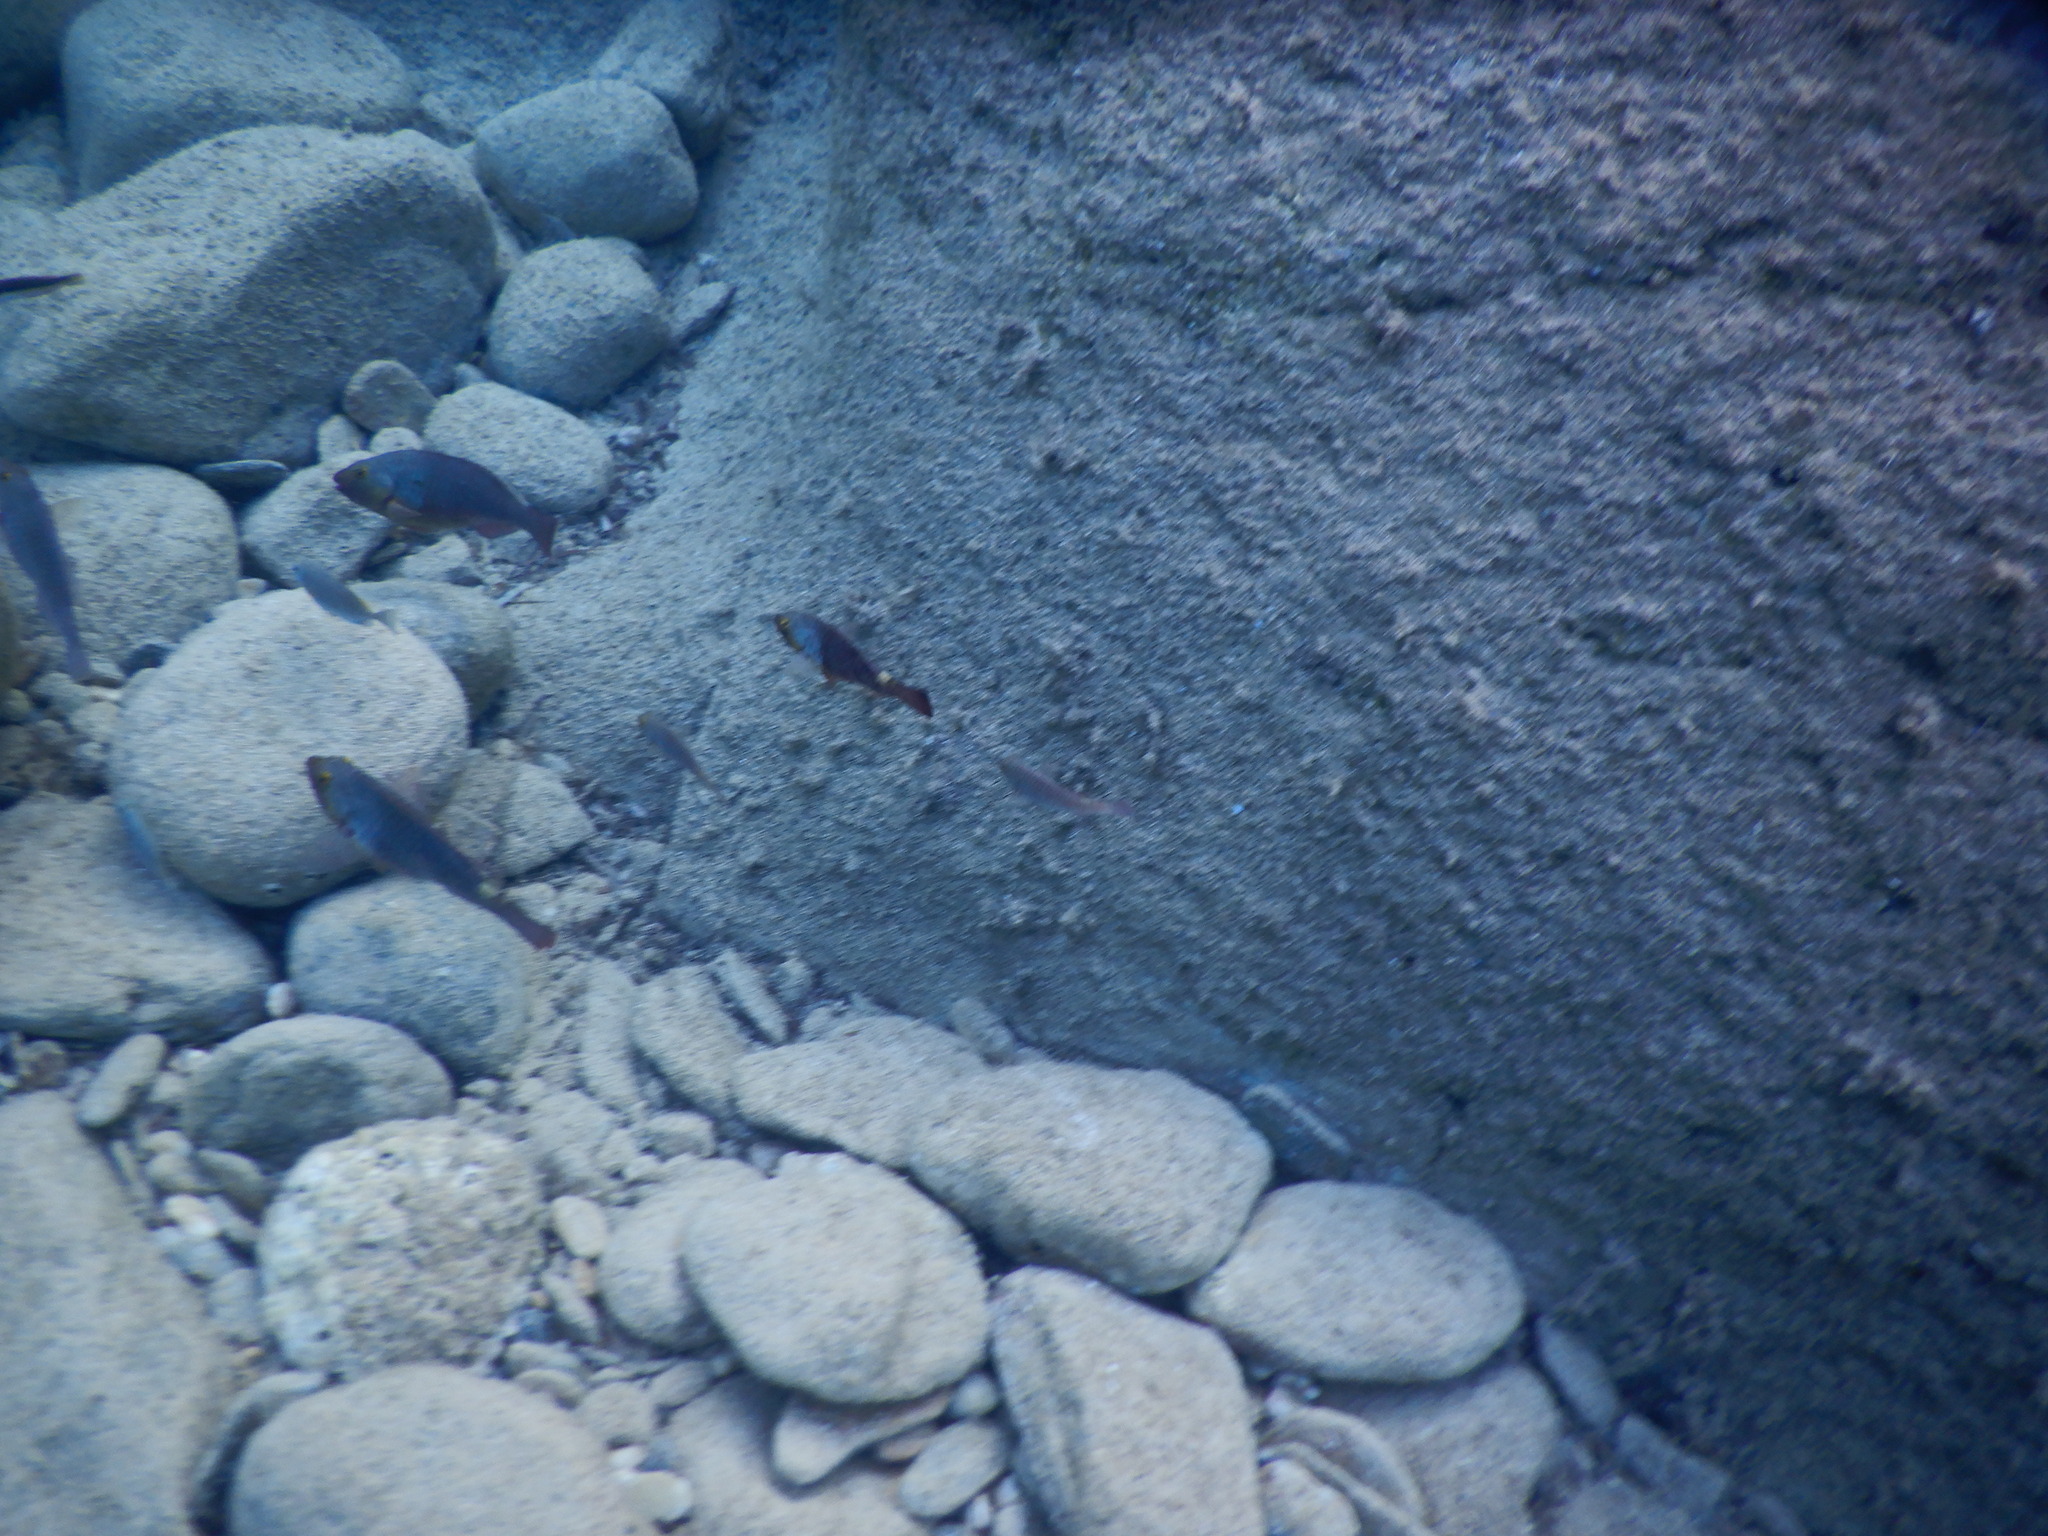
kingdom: Animalia
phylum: Chordata
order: Perciformes
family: Scaridae
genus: Sparisoma
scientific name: Sparisoma cretense
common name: Parrotfish
